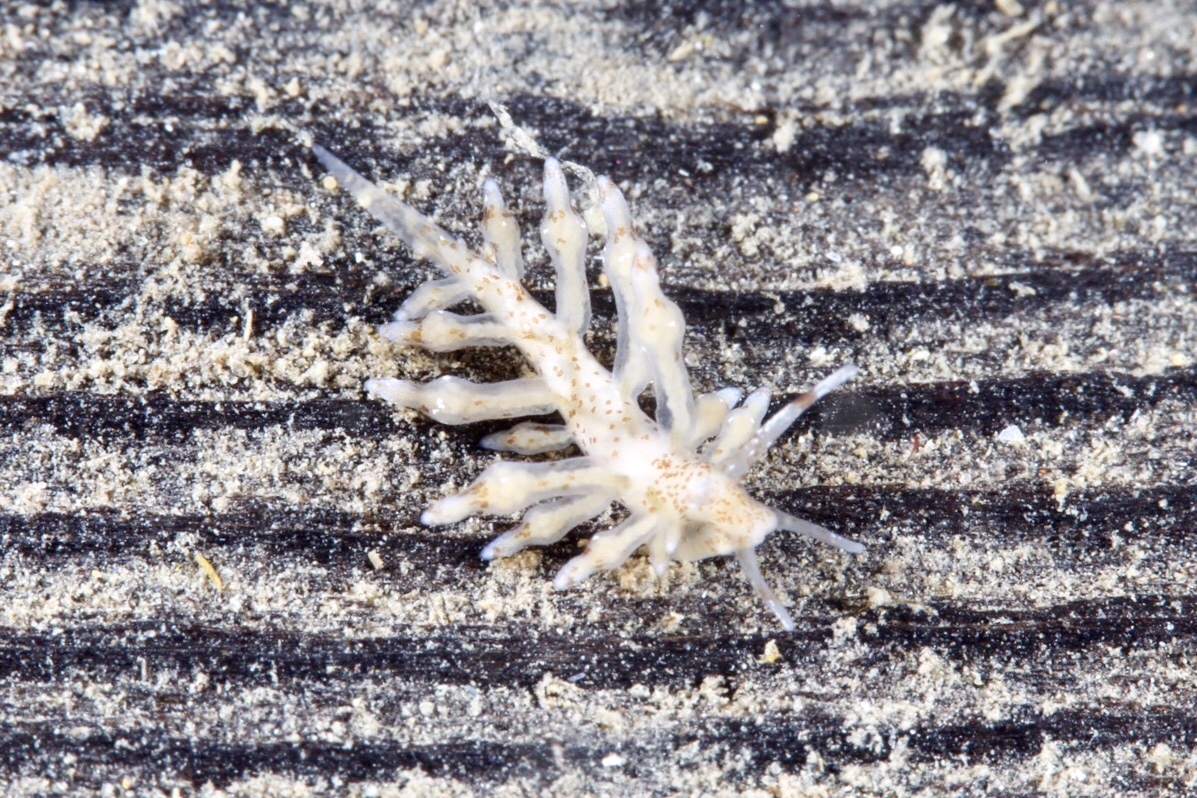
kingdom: Animalia
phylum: Mollusca
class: Gastropoda
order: Nudibranchia
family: Eubranchidae
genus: Eubranchus
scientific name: Eubranchus rupium
